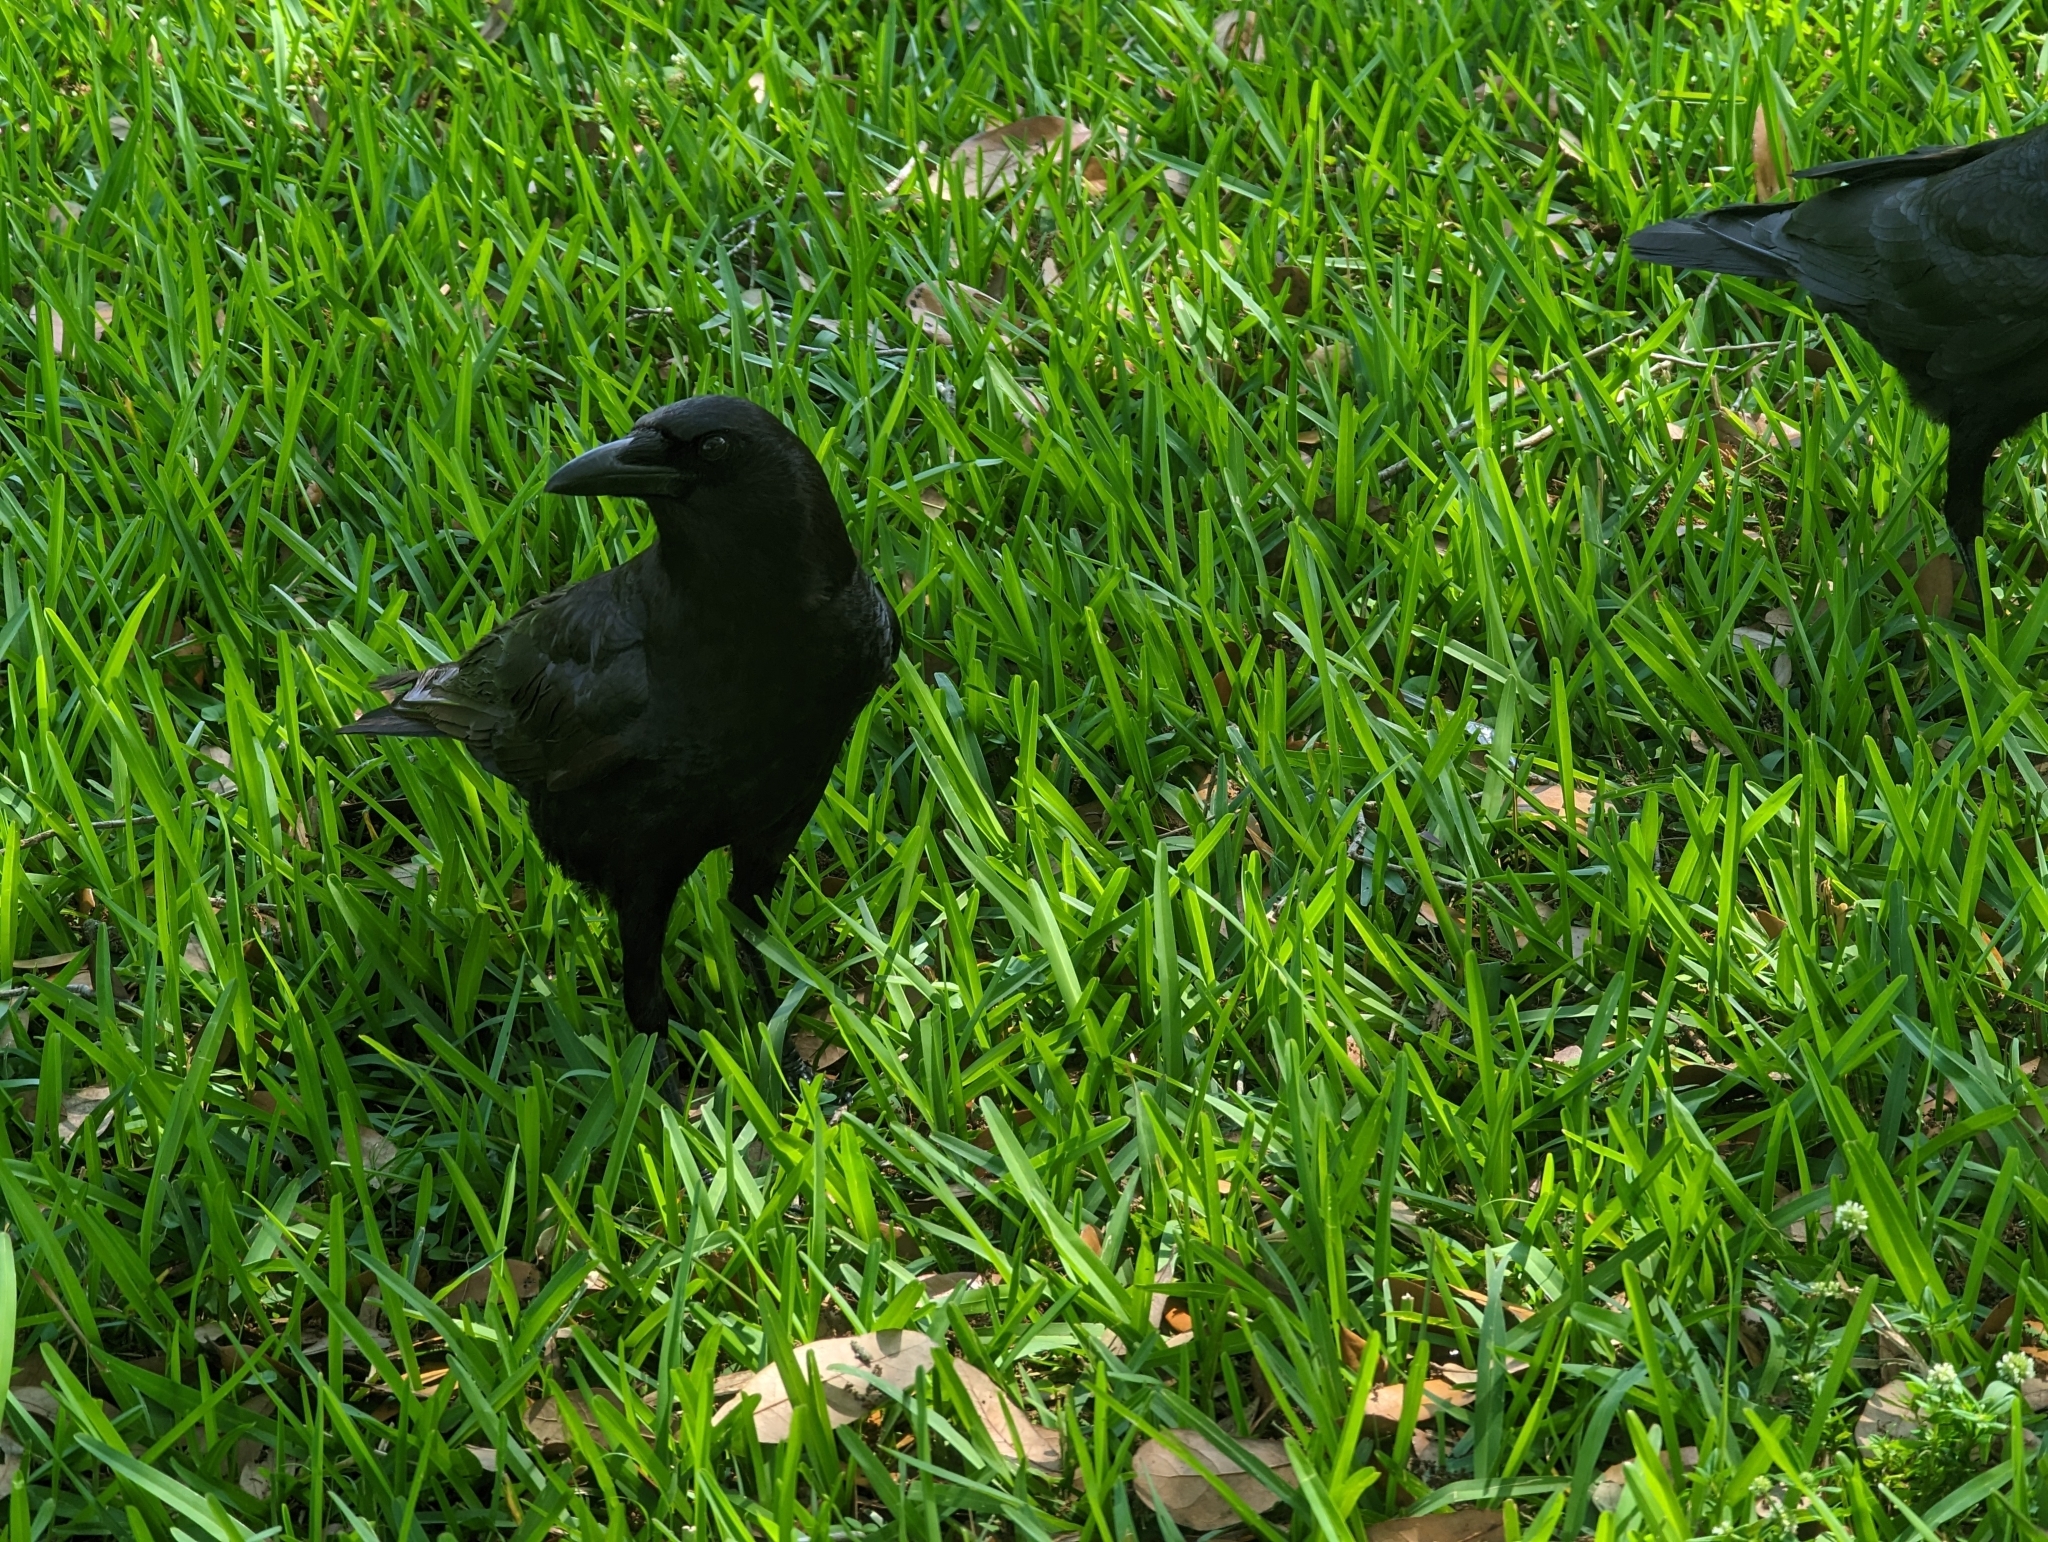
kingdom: Animalia
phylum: Chordata
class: Aves
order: Passeriformes
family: Corvidae
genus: Corvus
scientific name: Corvus brachyrhynchos
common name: American crow
